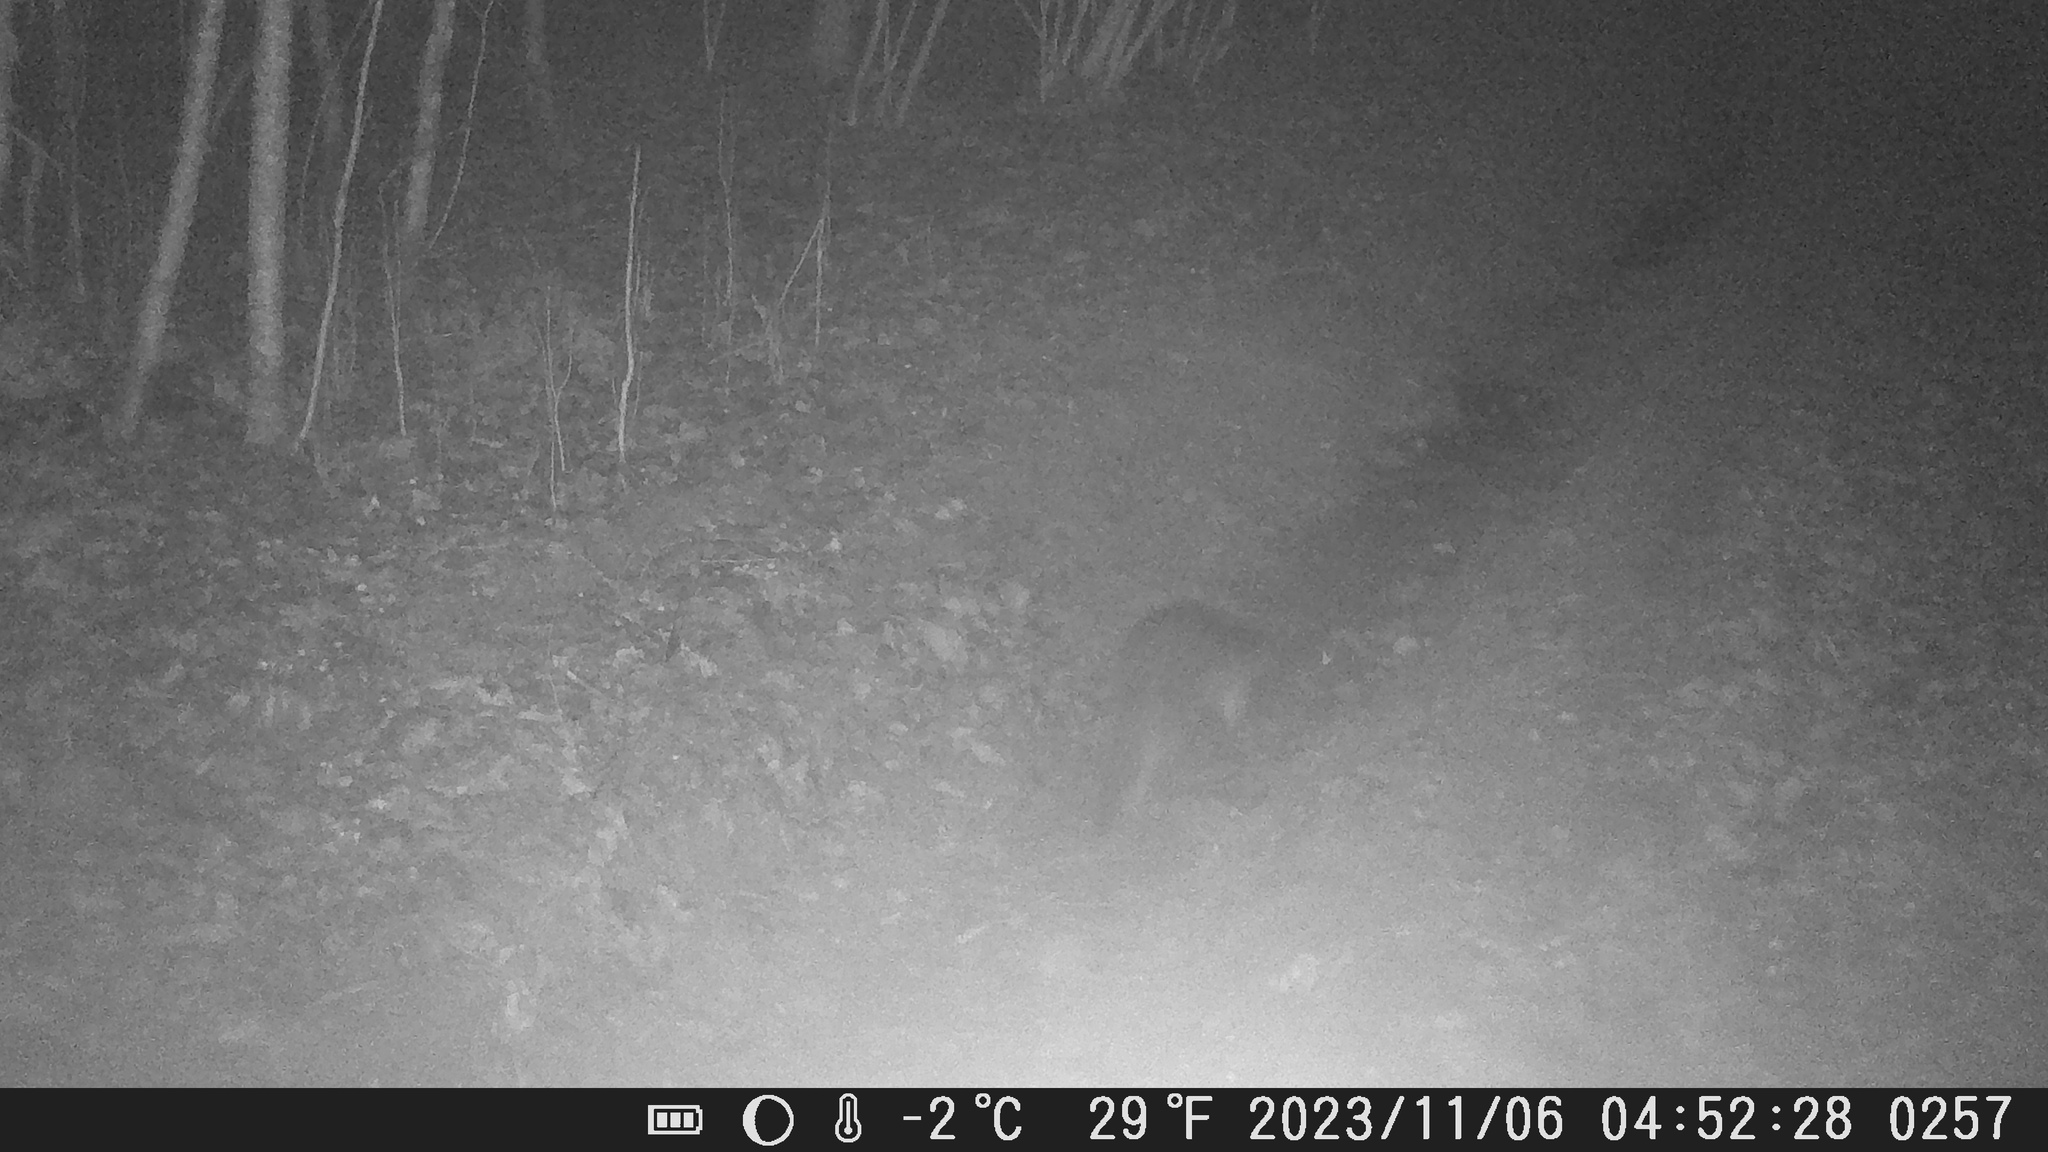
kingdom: Animalia
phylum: Chordata
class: Mammalia
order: Carnivora
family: Mustelidae
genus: Lutra
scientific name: Lutra lutra
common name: European otter
